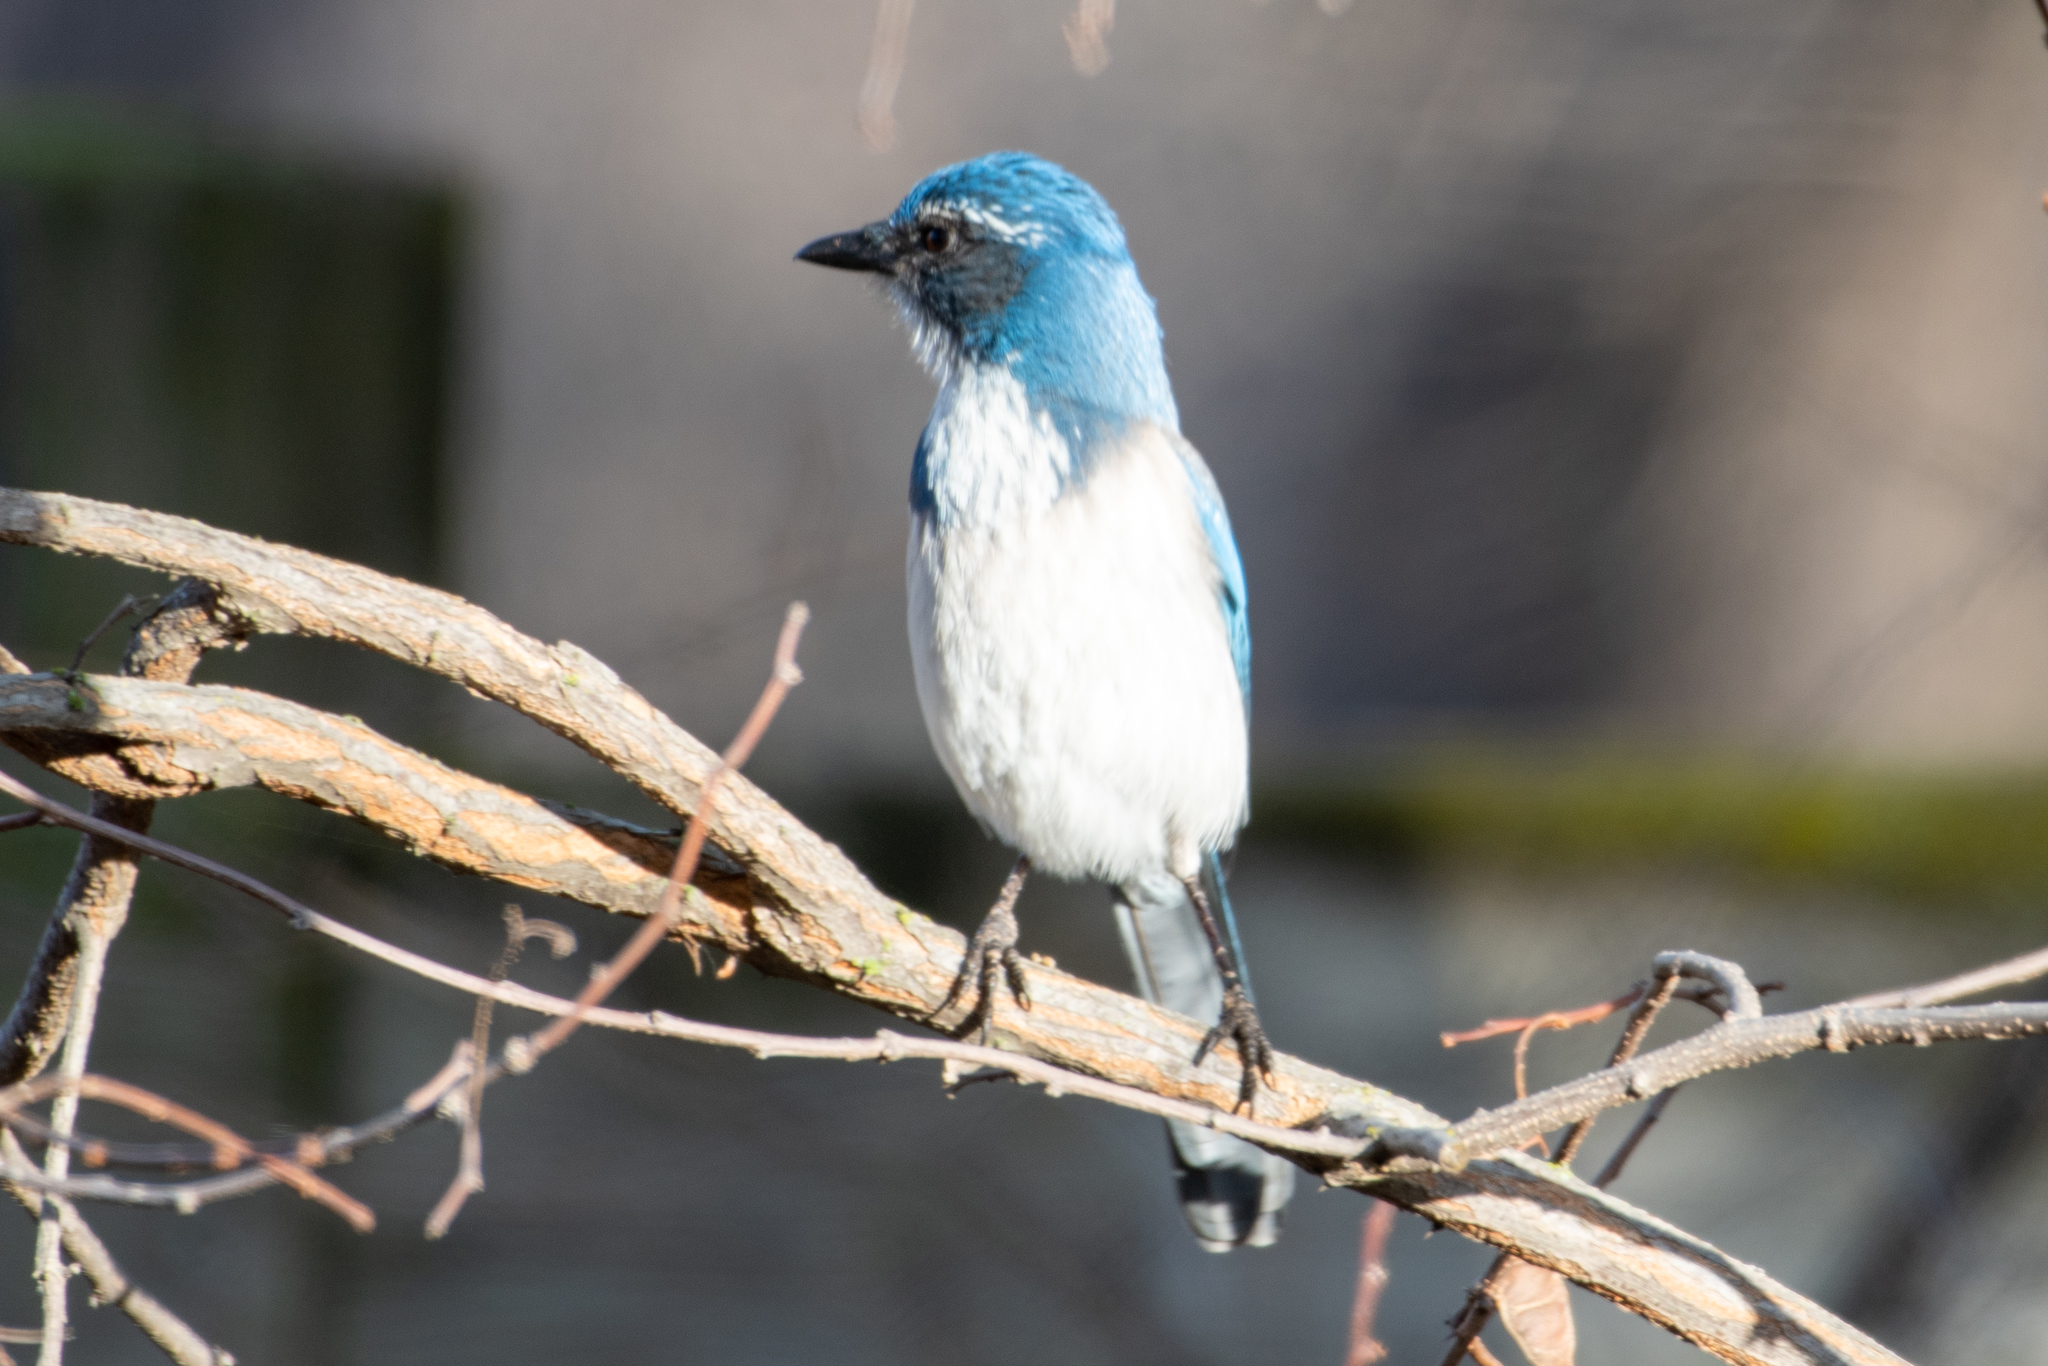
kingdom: Animalia
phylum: Chordata
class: Aves
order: Passeriformes
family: Corvidae
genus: Aphelocoma
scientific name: Aphelocoma californica
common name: California scrub-jay
